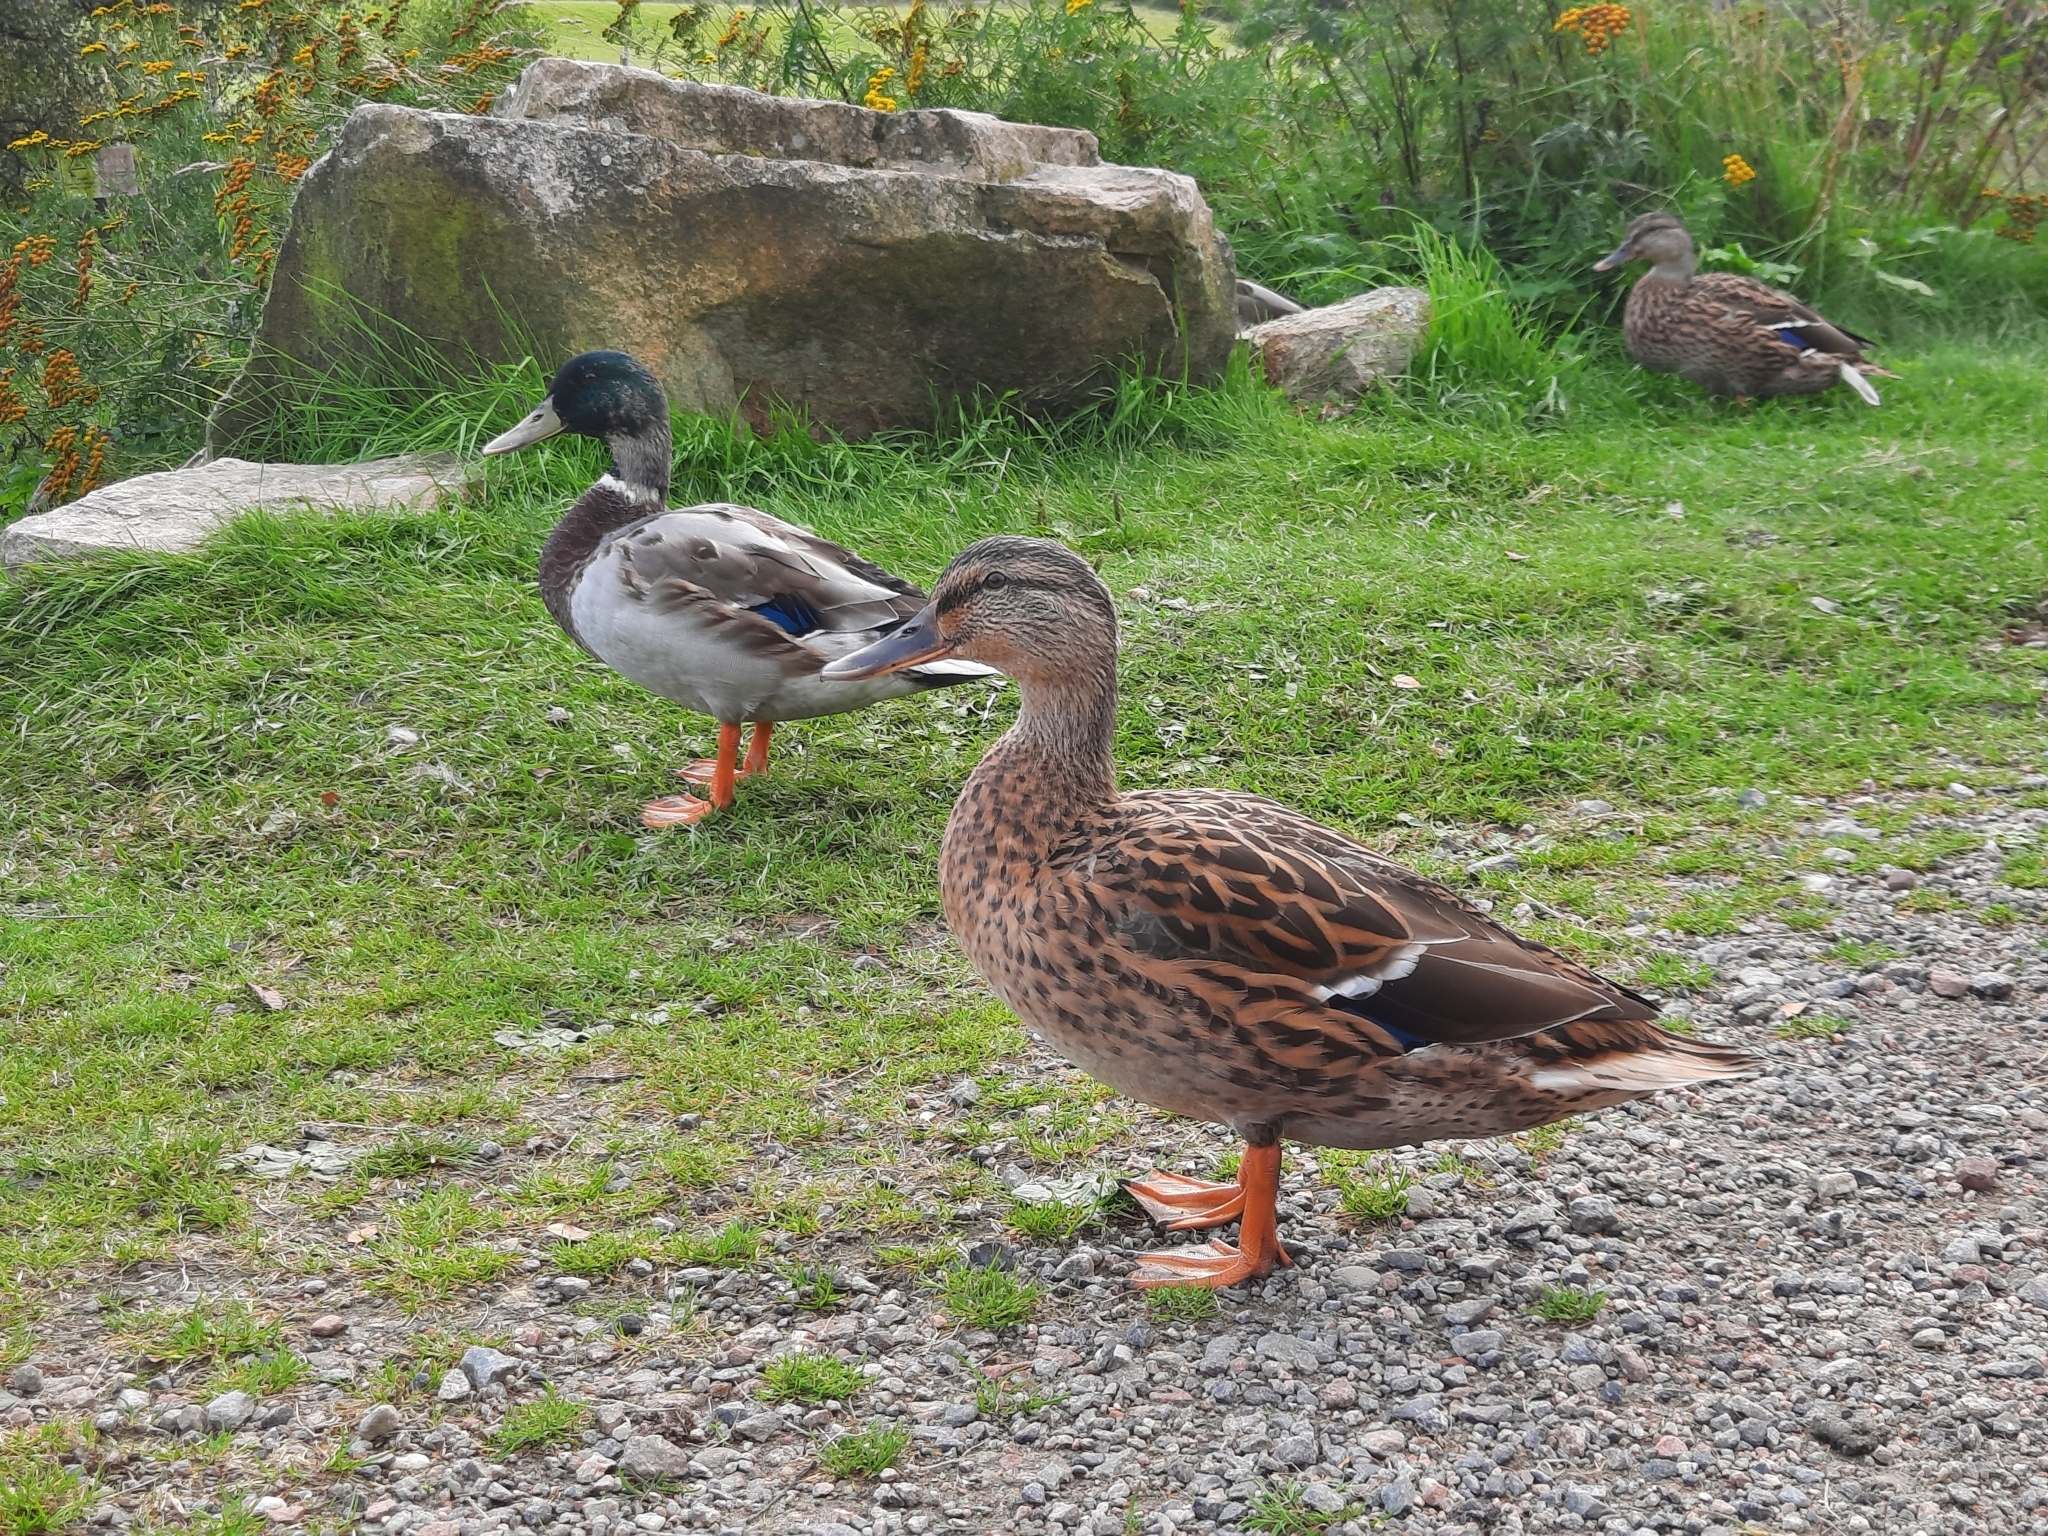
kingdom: Animalia
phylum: Chordata
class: Aves
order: Anseriformes
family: Anatidae
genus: Anas
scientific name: Anas platyrhynchos
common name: Mallard
